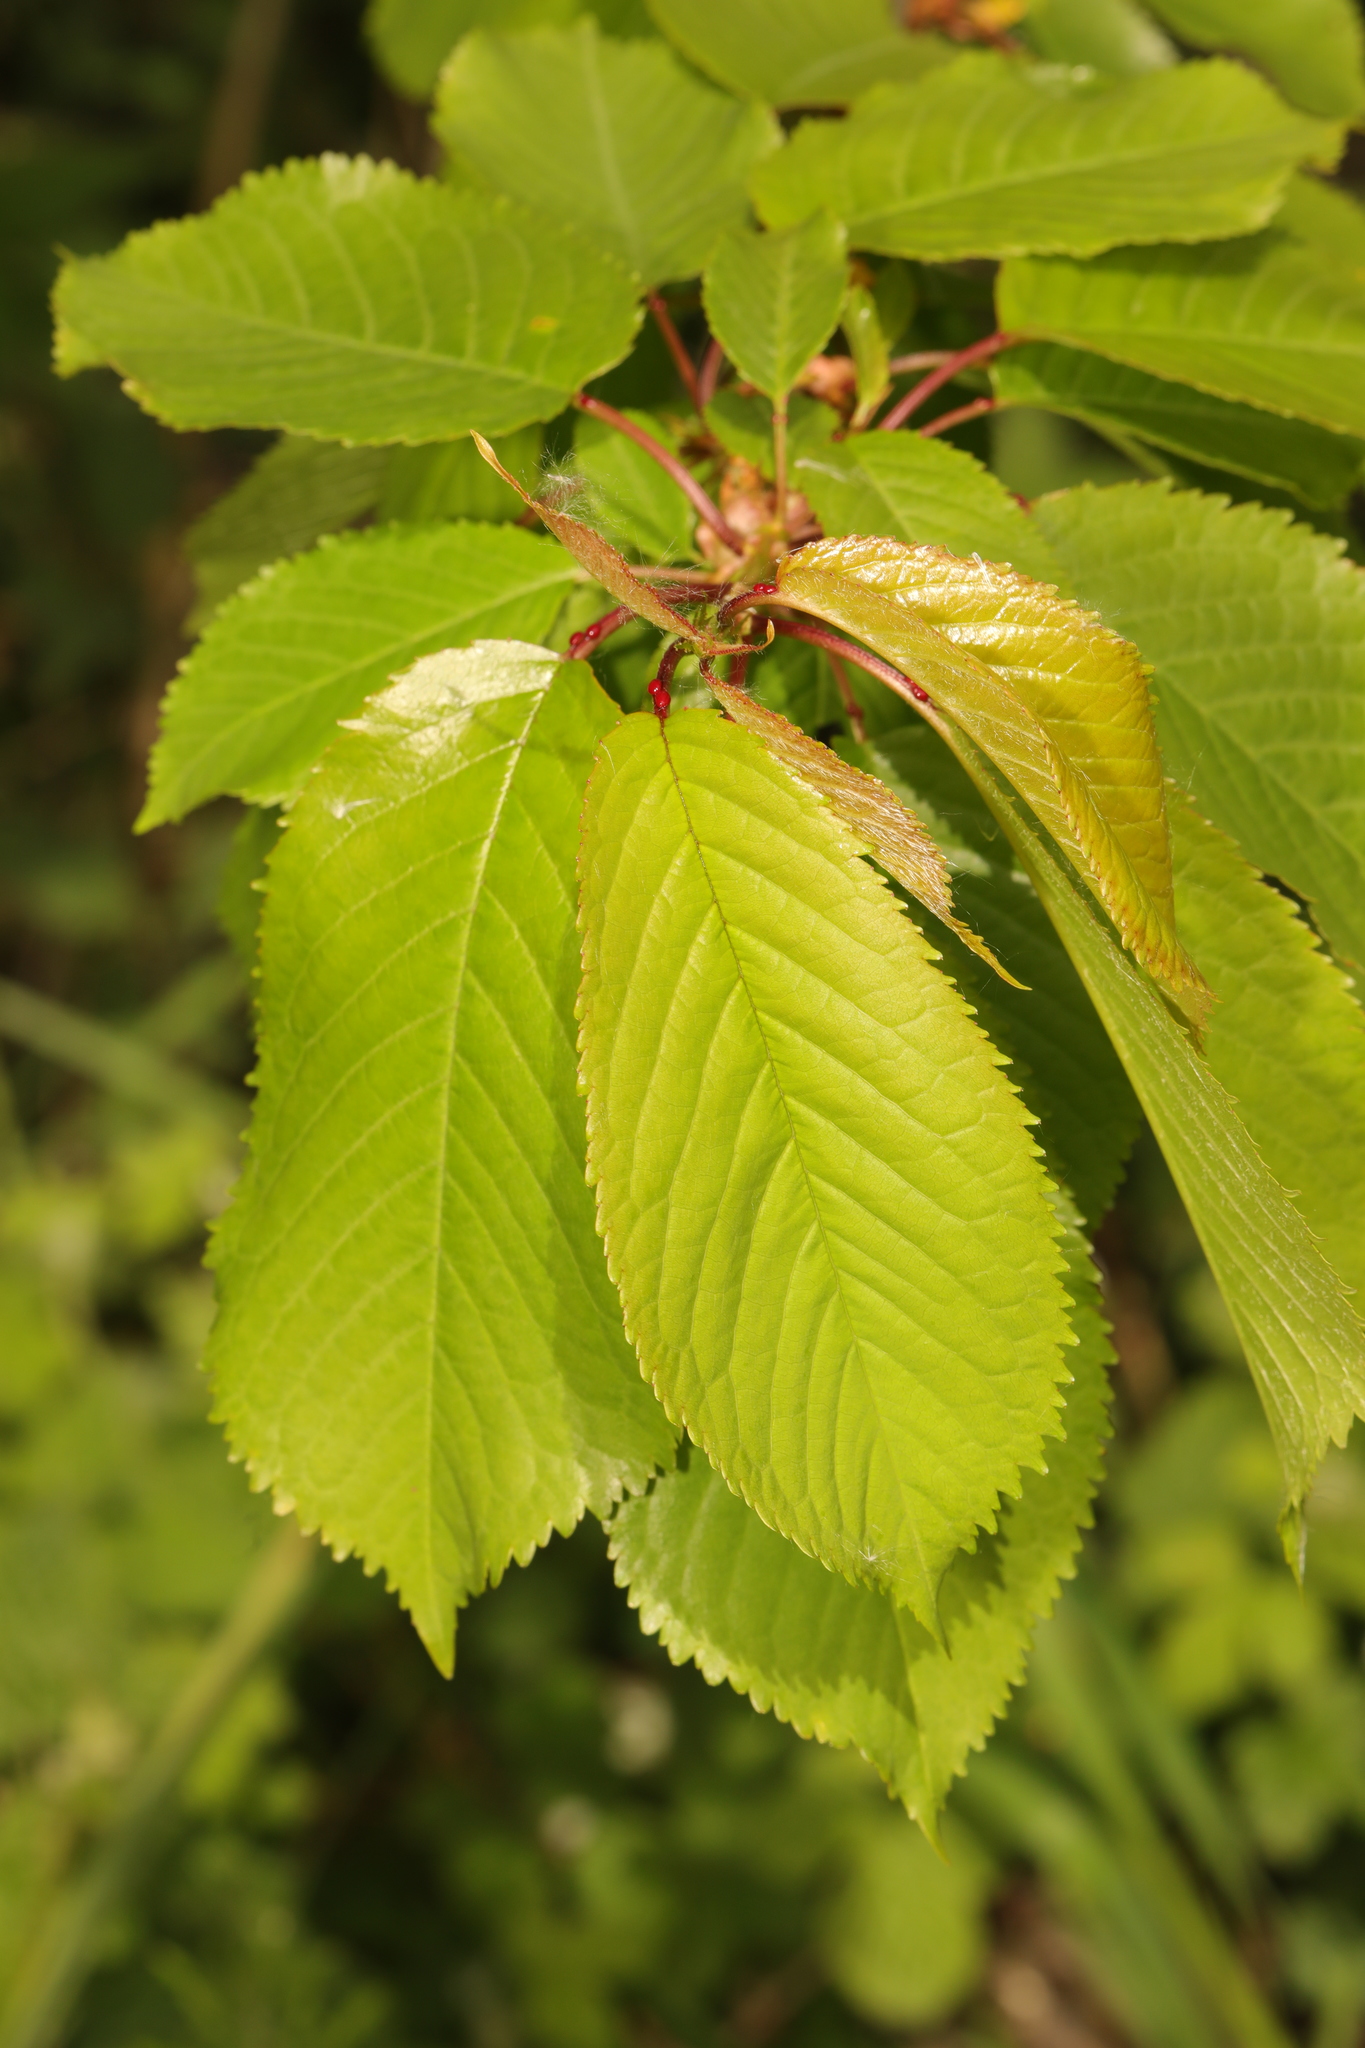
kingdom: Plantae
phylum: Tracheophyta
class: Magnoliopsida
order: Rosales
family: Rosaceae
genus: Prunus
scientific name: Prunus avium
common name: Sweet cherry
